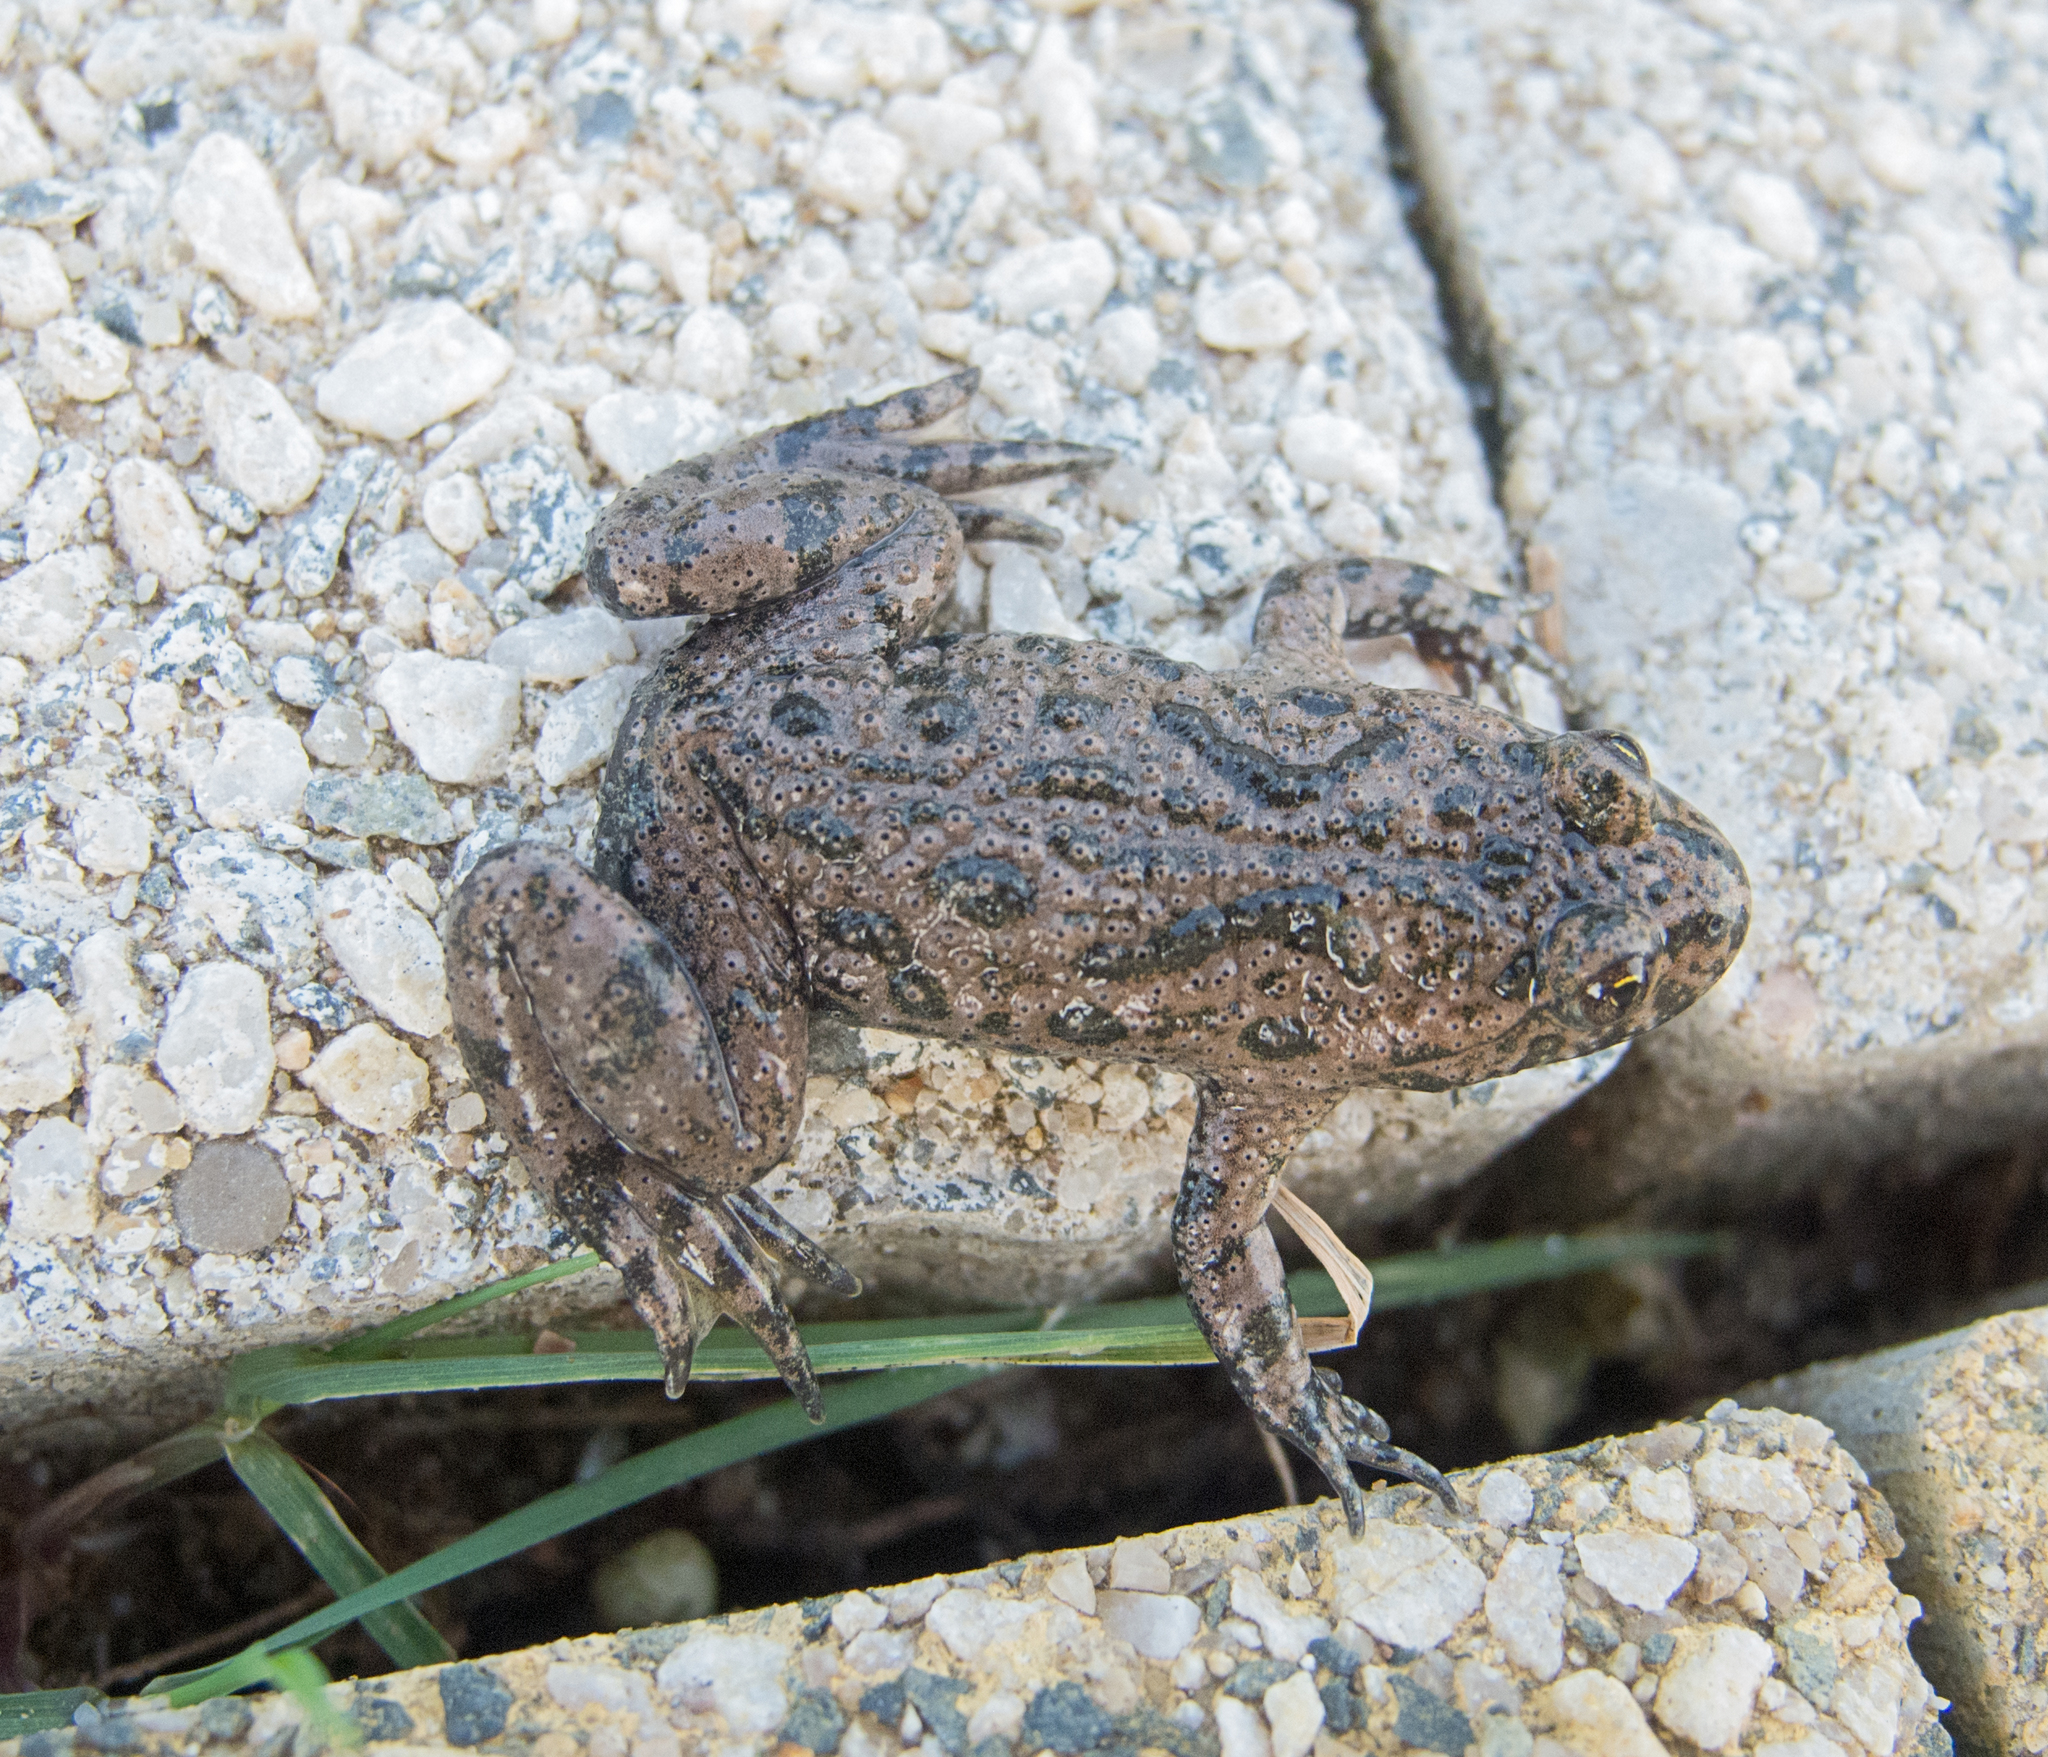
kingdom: Animalia
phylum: Chordata
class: Amphibia
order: Anura
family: Bombinatoridae
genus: Bombina
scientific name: Bombina bombina
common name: Fire-bellied toad
